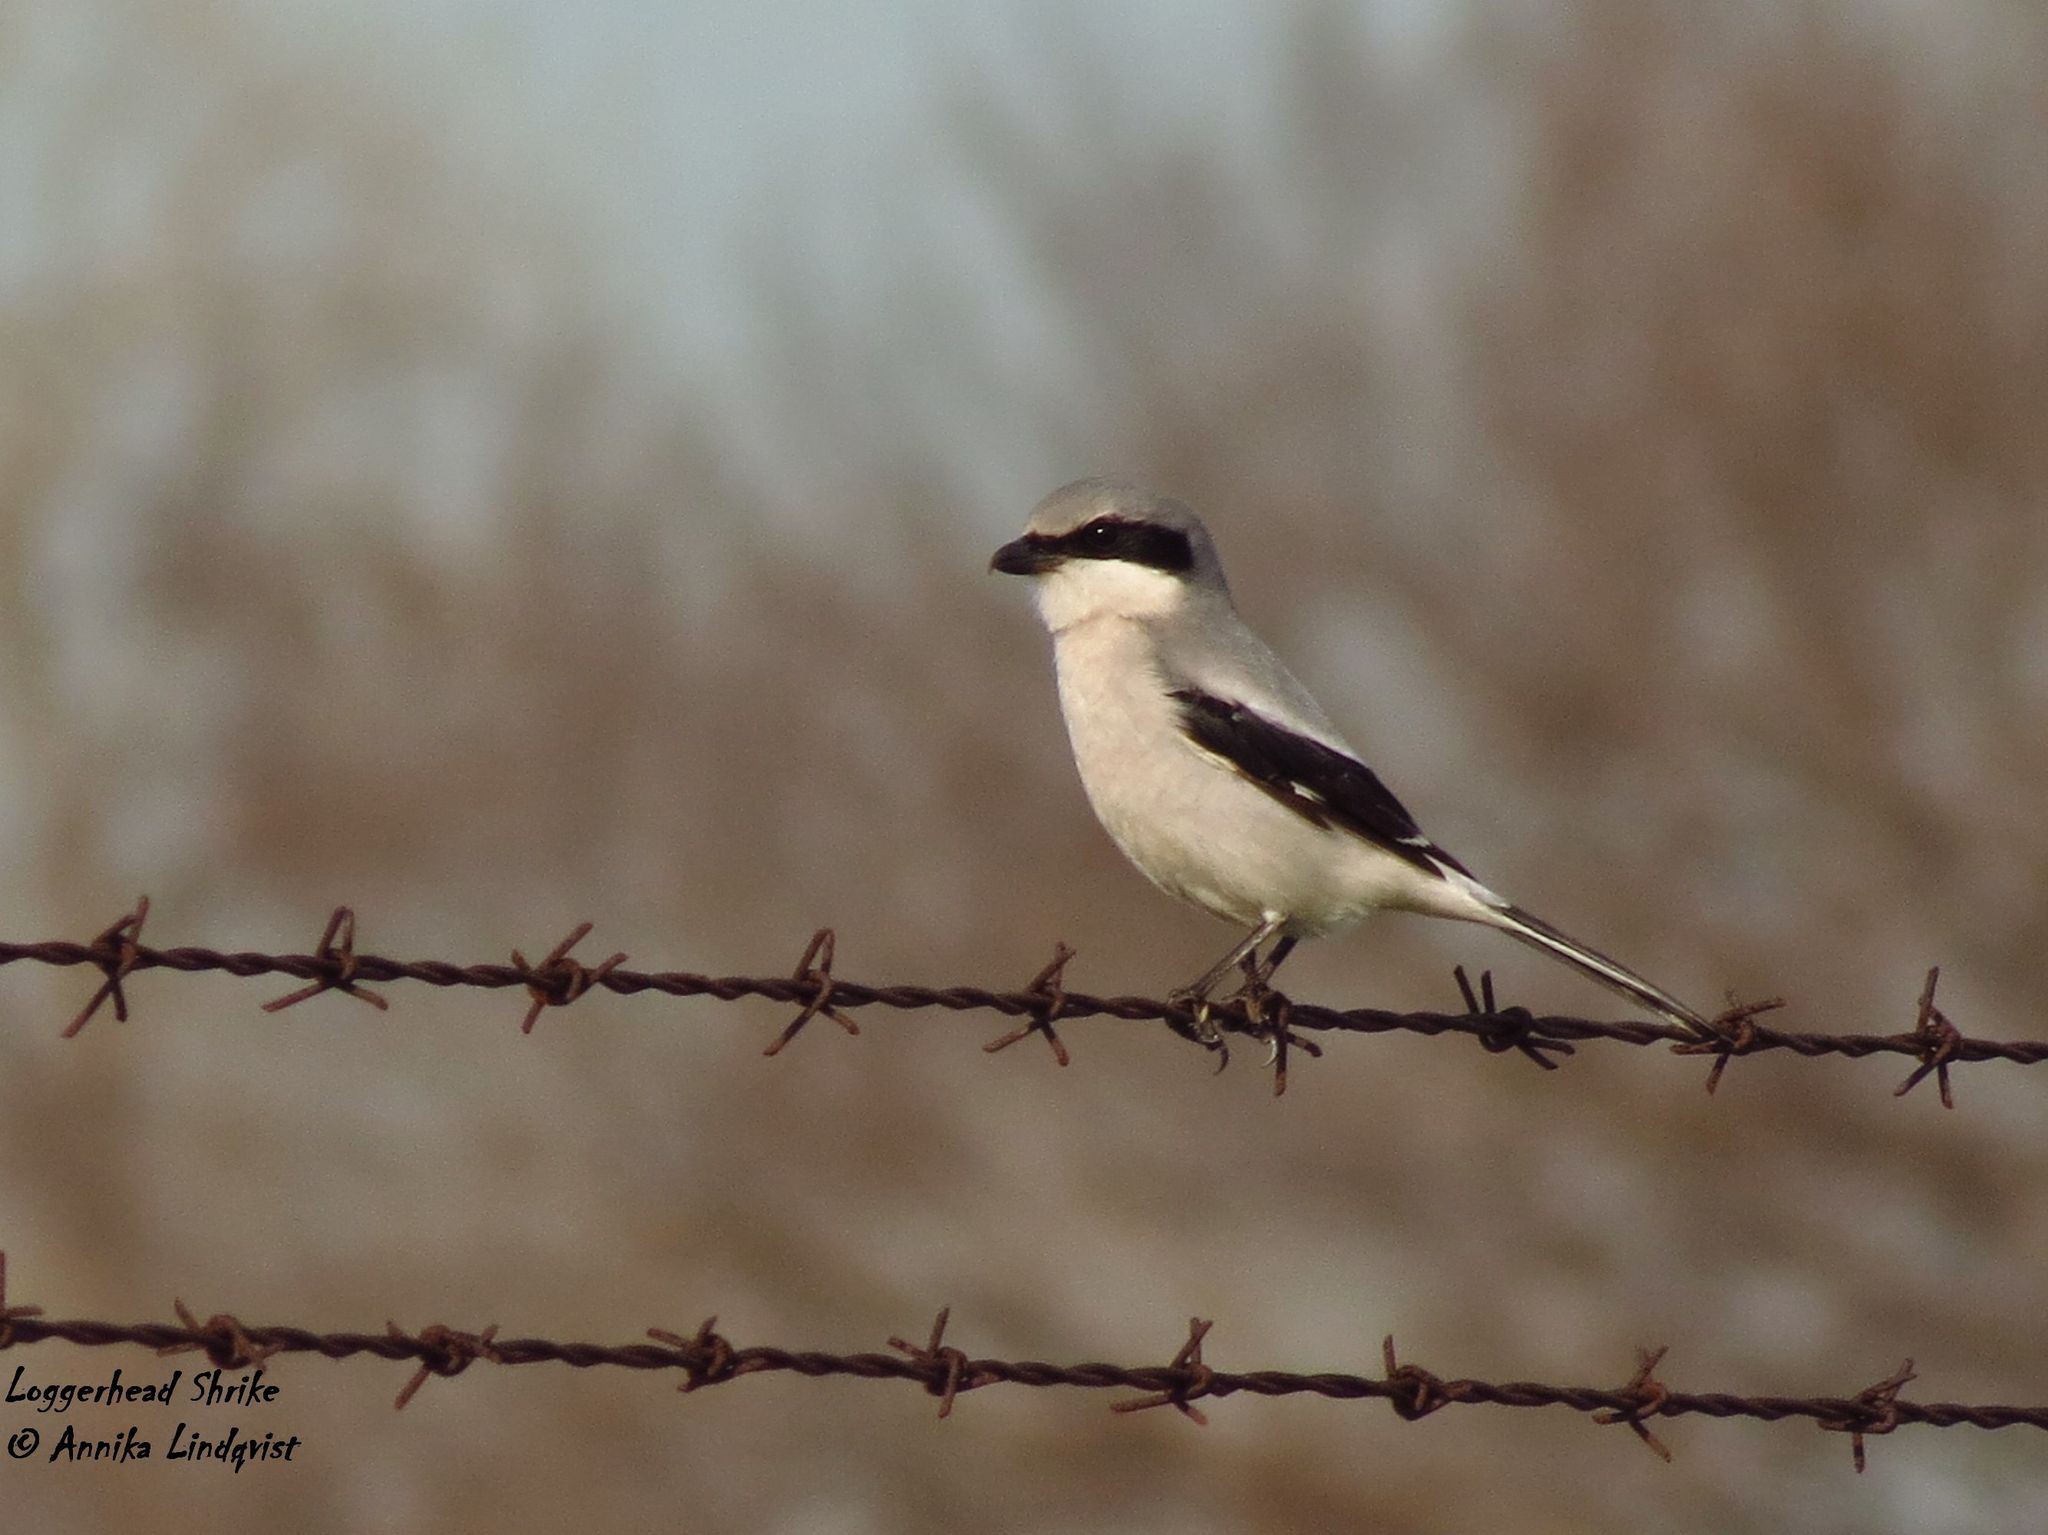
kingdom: Animalia
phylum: Chordata
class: Aves
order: Passeriformes
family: Laniidae
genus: Lanius
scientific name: Lanius ludovicianus
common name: Loggerhead shrike
